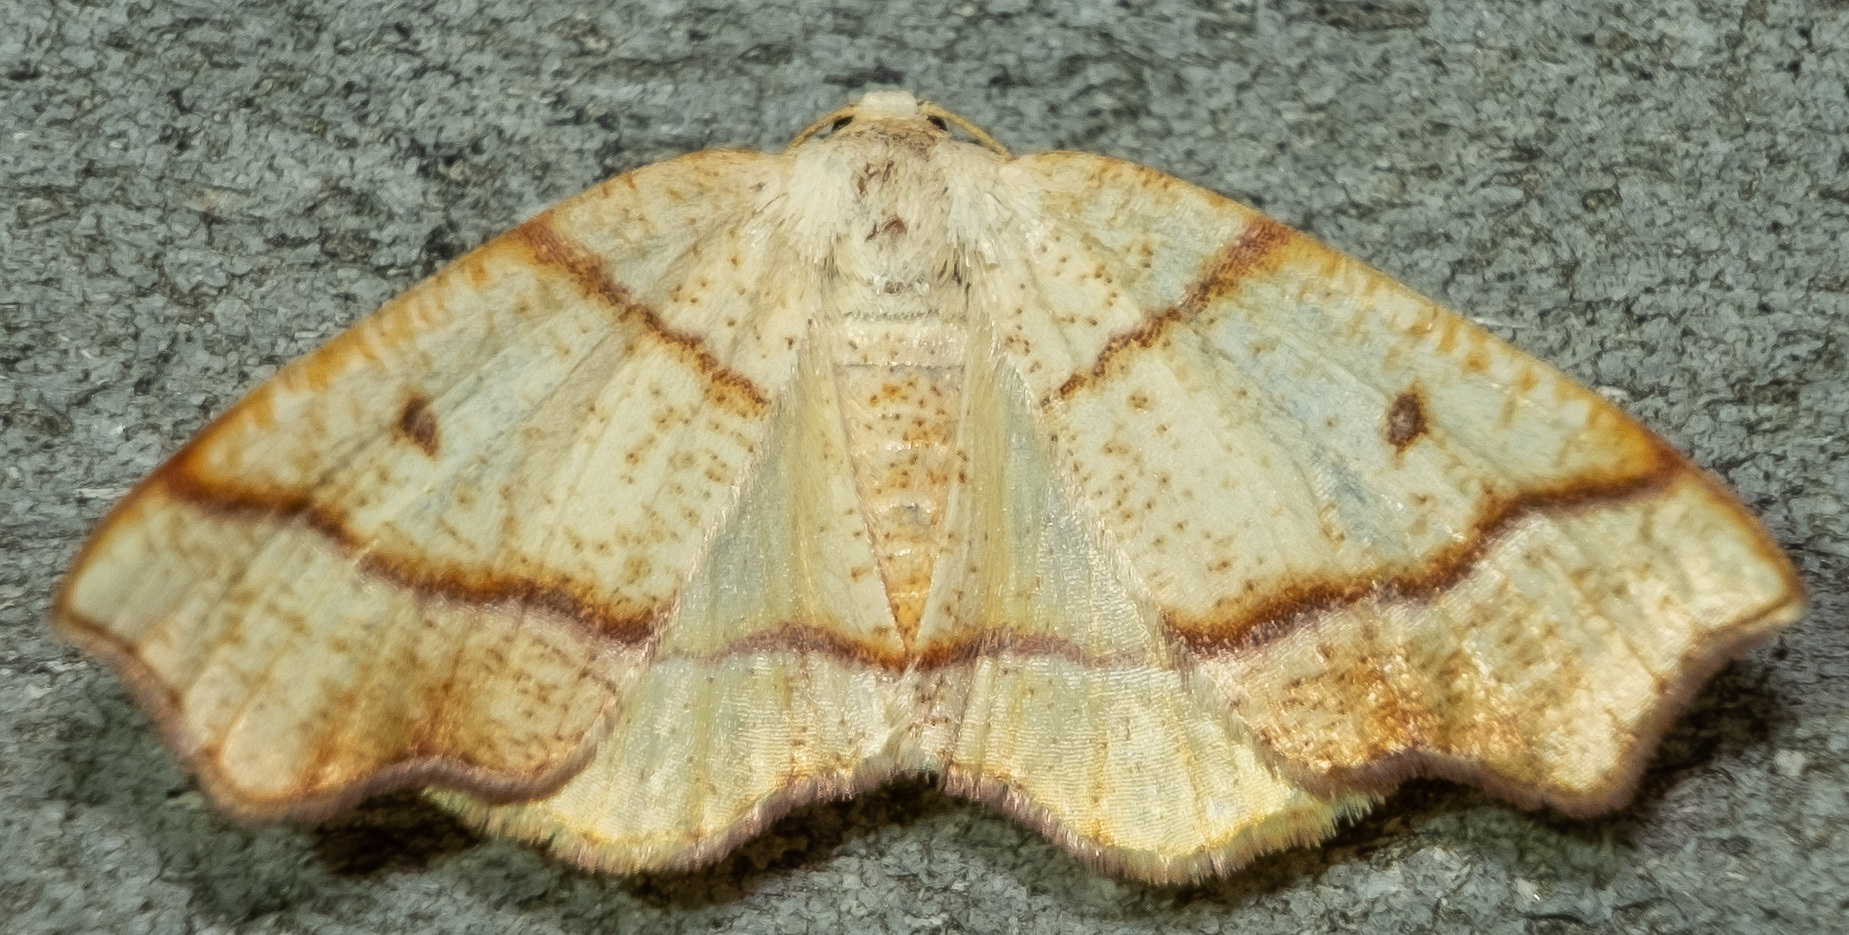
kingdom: Animalia
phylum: Arthropoda
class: Insecta
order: Lepidoptera
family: Geometridae
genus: Plagodis
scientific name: Plagodis alcoolaria
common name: Hollow-spotted plagodis
